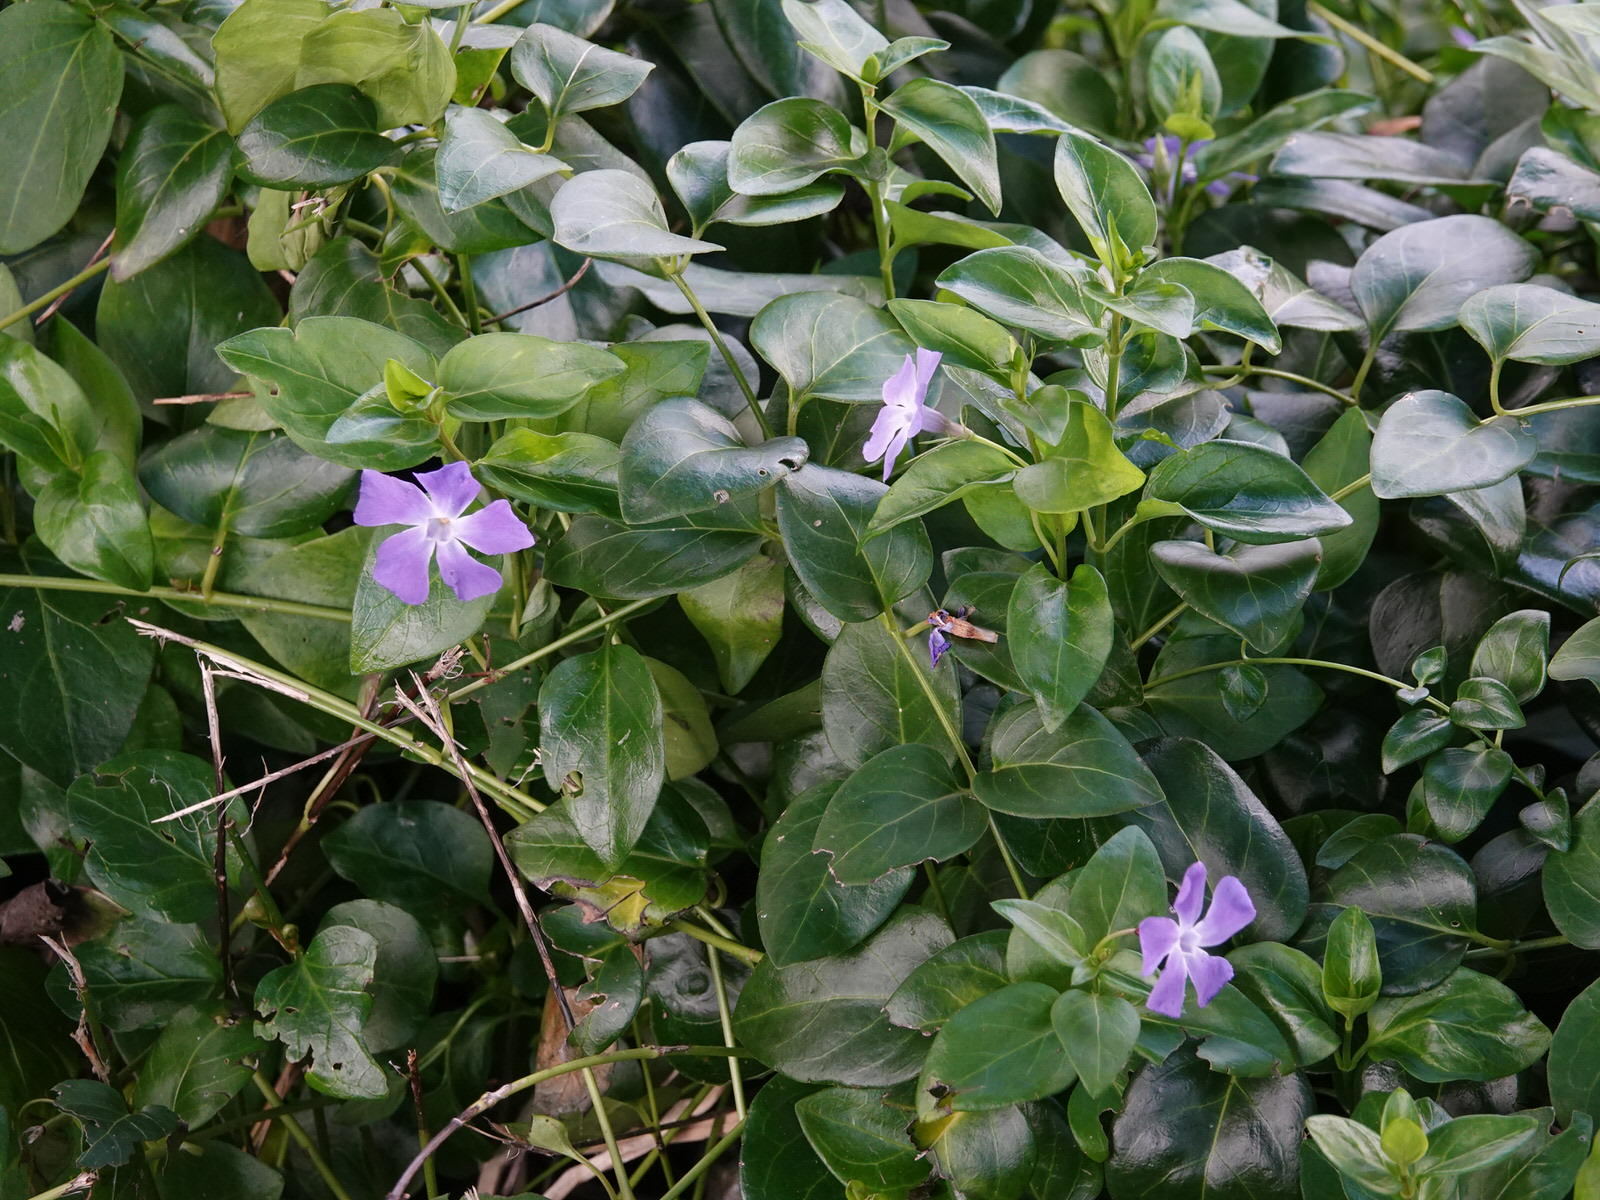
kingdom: Plantae
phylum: Tracheophyta
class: Magnoliopsida
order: Gentianales
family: Apocynaceae
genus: Vinca
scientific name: Vinca major
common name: Greater periwinkle
